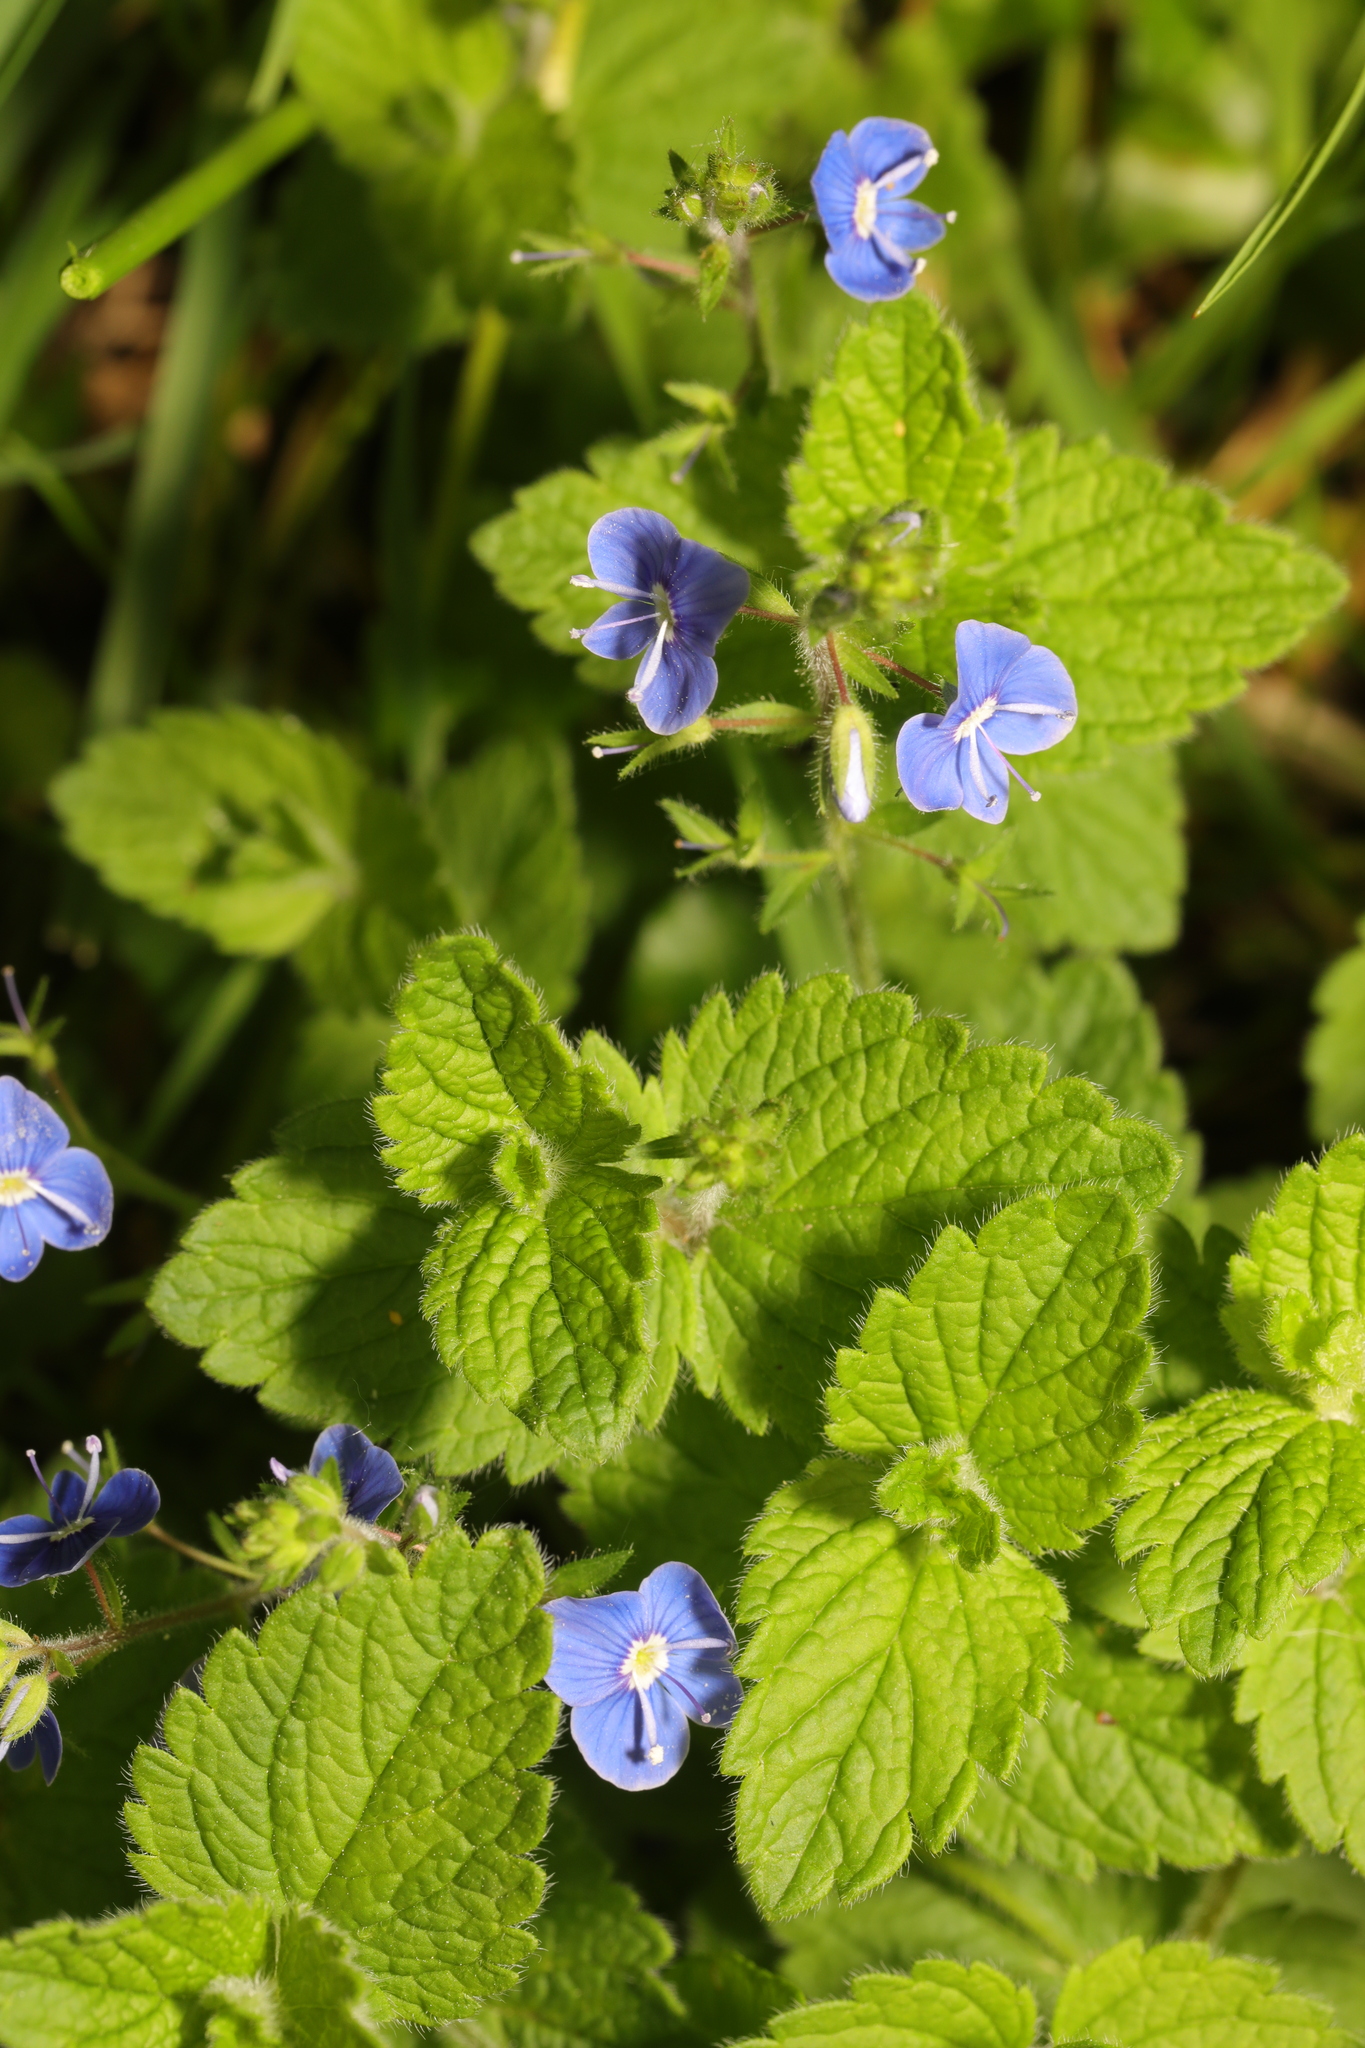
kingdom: Plantae
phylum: Tracheophyta
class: Magnoliopsida
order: Lamiales
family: Plantaginaceae
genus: Veronica
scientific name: Veronica chamaedrys
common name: Germander speedwell
